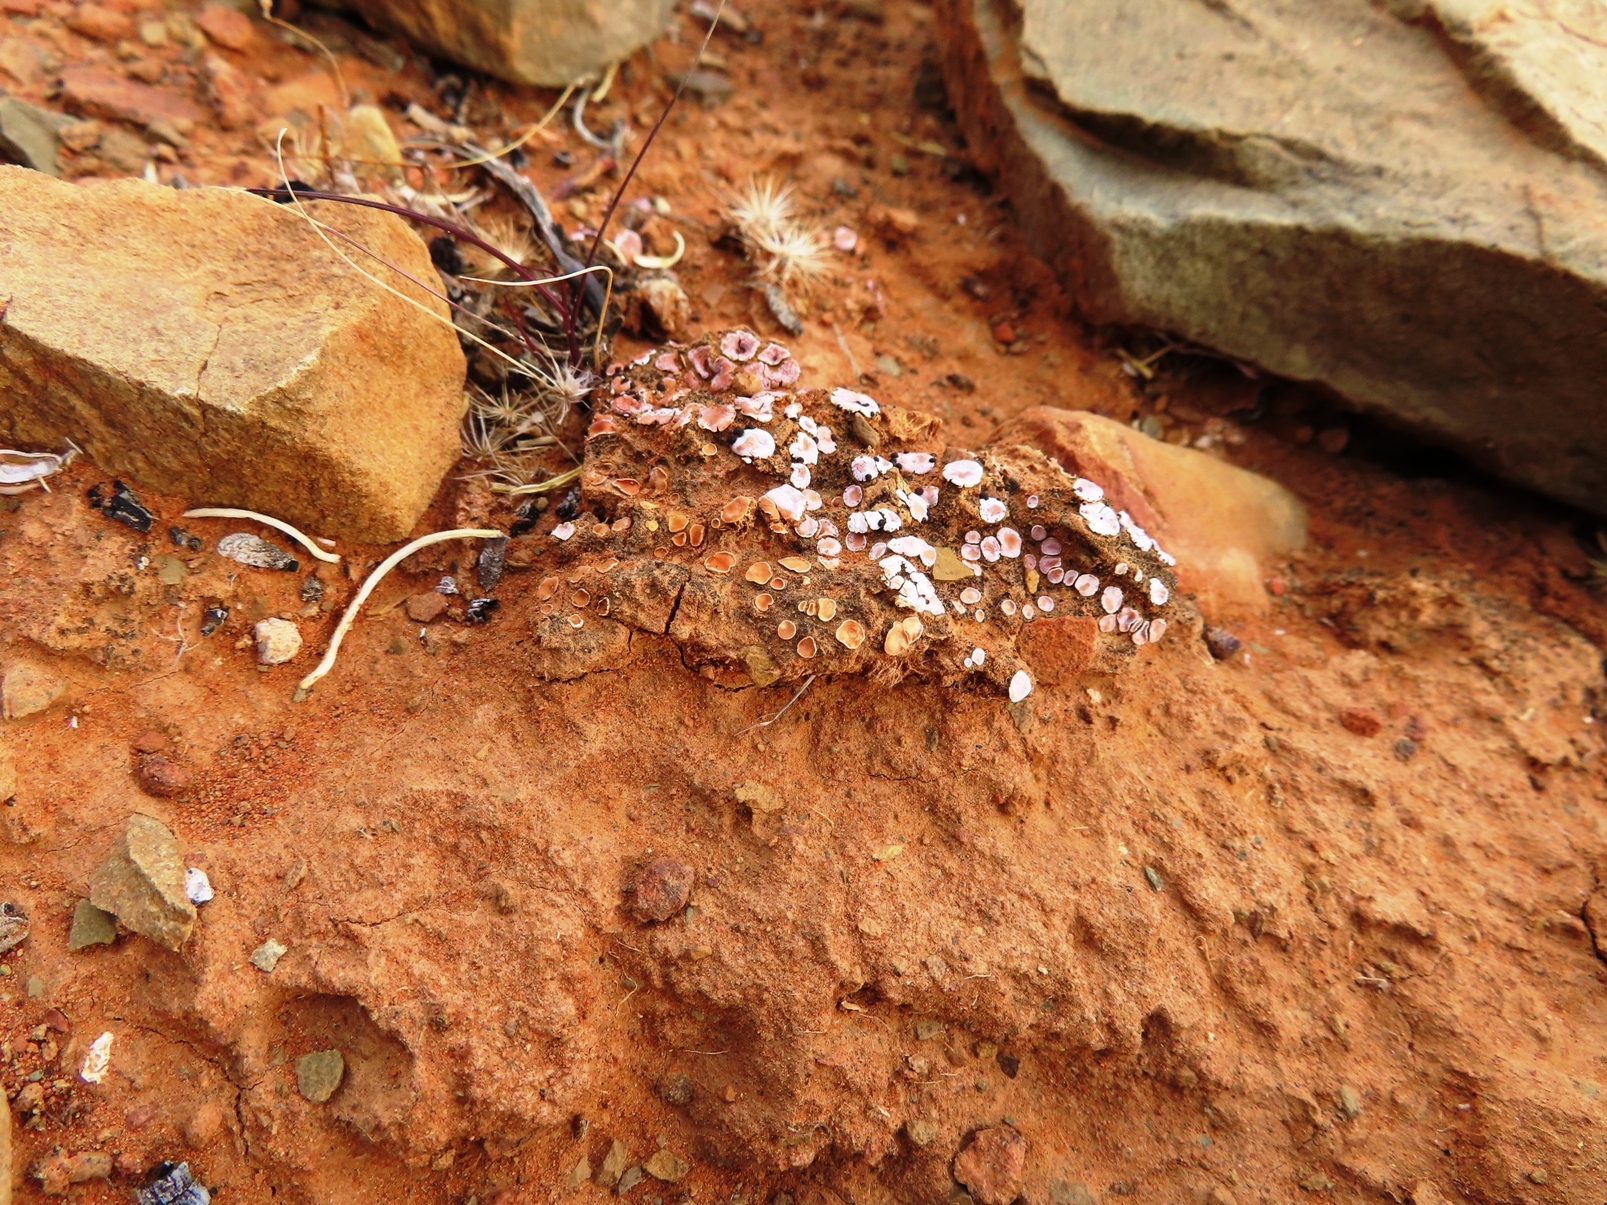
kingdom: Fungi
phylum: Ascomycota
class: Lecanoromycetes
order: Lecanorales
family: Psoraceae
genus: Psora
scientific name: Psora crenata
